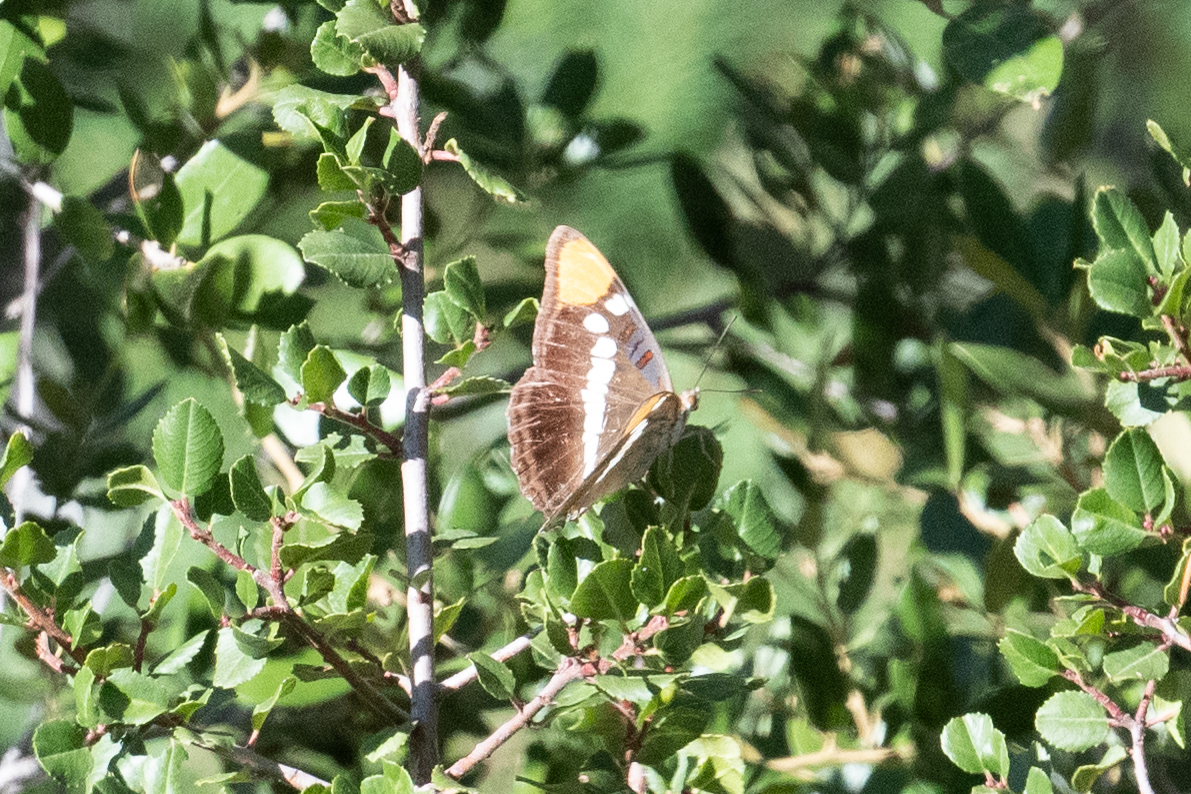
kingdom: Animalia
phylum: Arthropoda
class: Insecta
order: Lepidoptera
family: Nymphalidae
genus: Limenitis
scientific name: Limenitis bredowii
